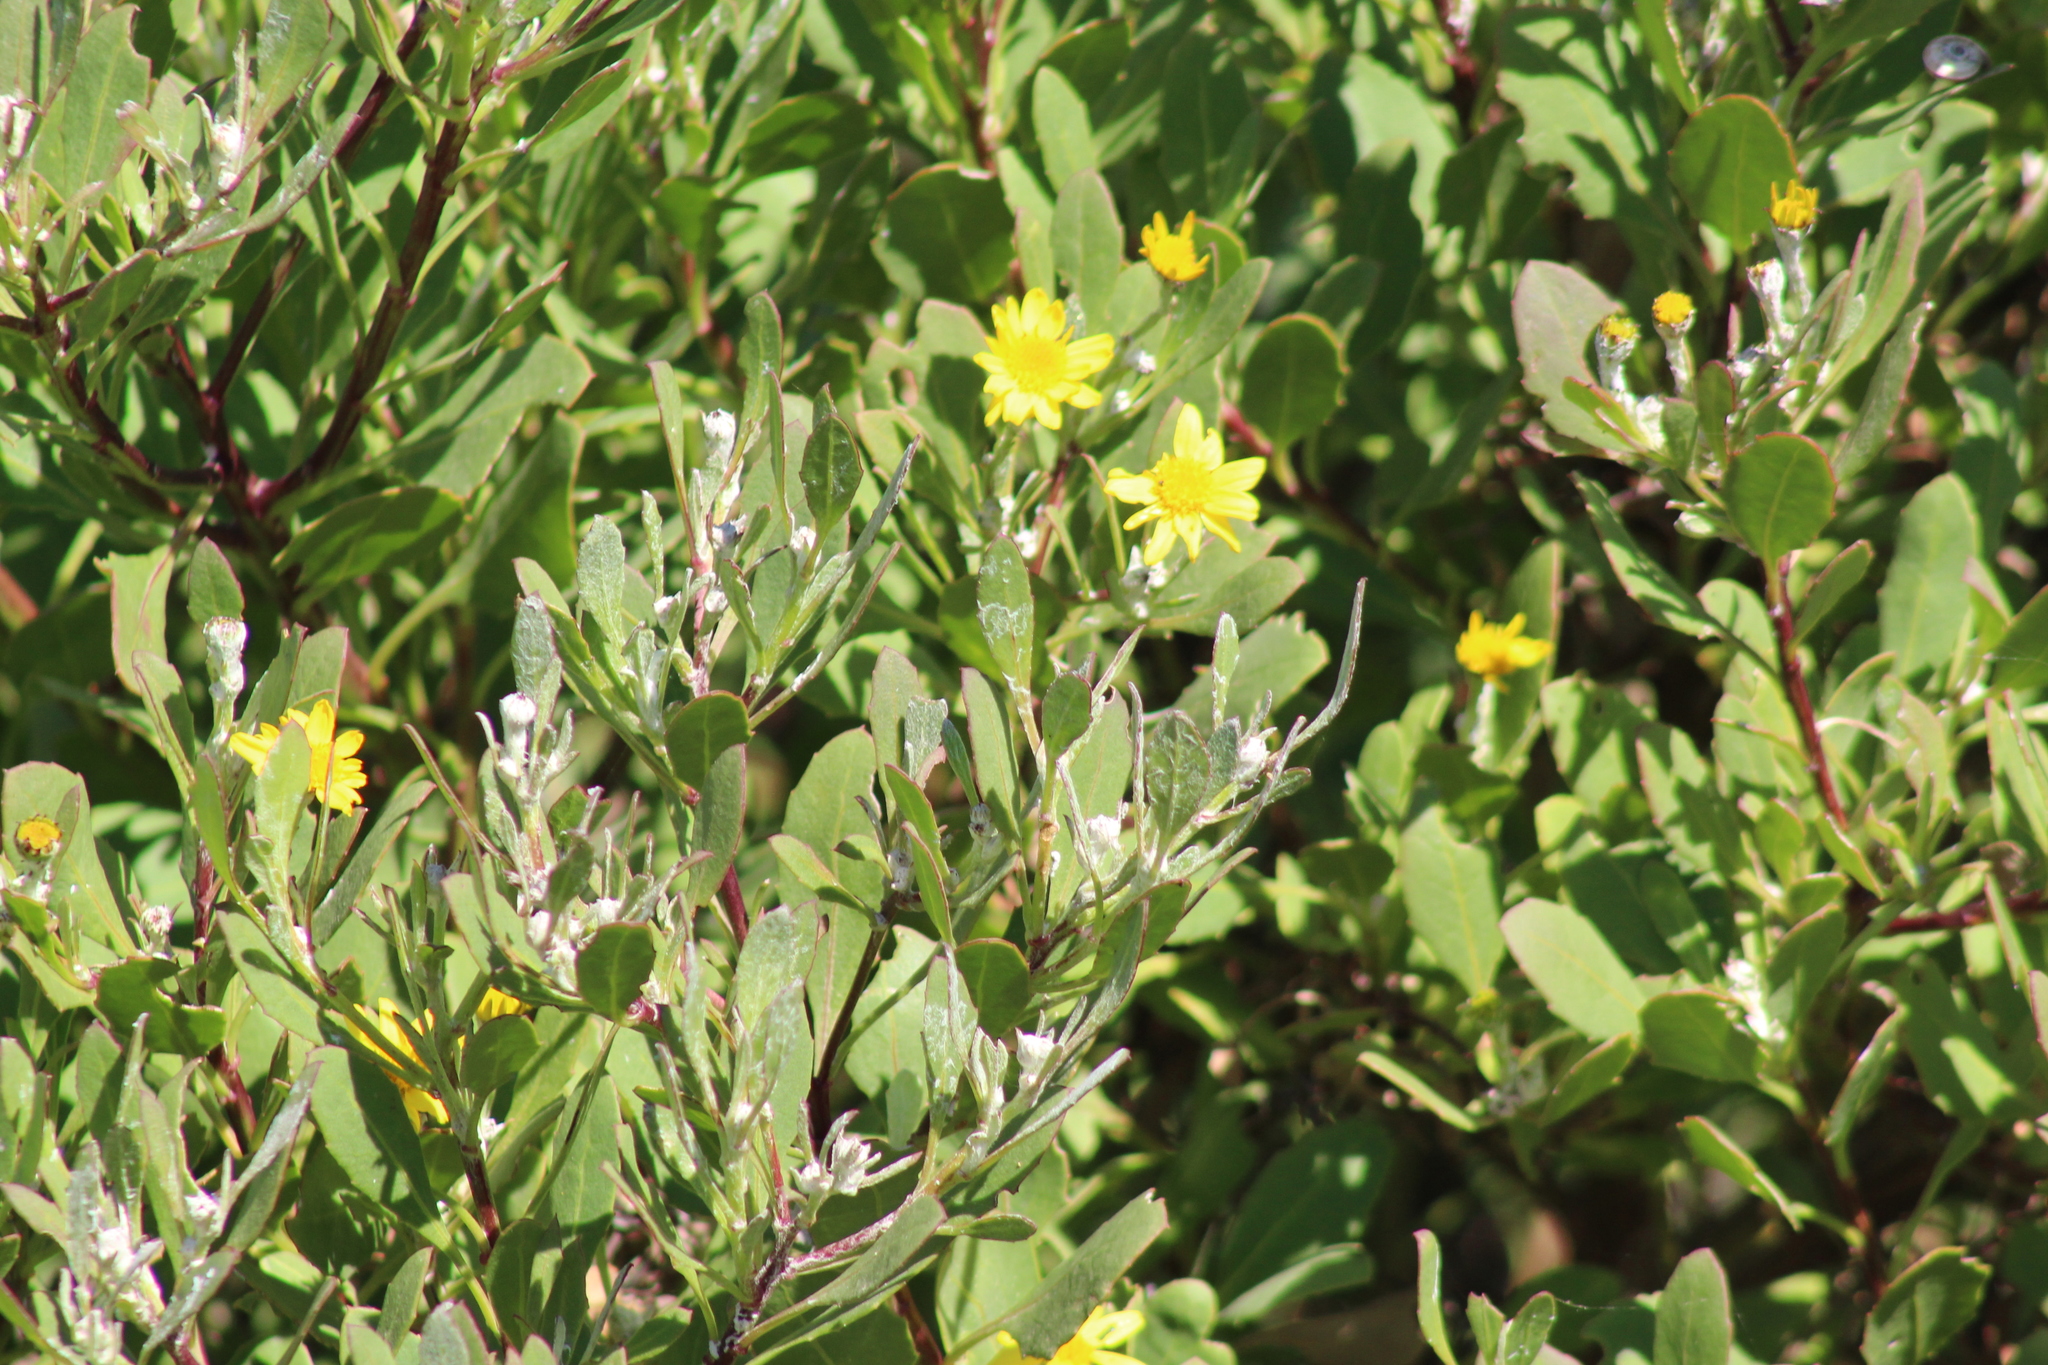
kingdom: Plantae
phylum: Tracheophyta
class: Magnoliopsida
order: Asterales
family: Asteraceae
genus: Osteospermum
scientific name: Osteospermum moniliferum
